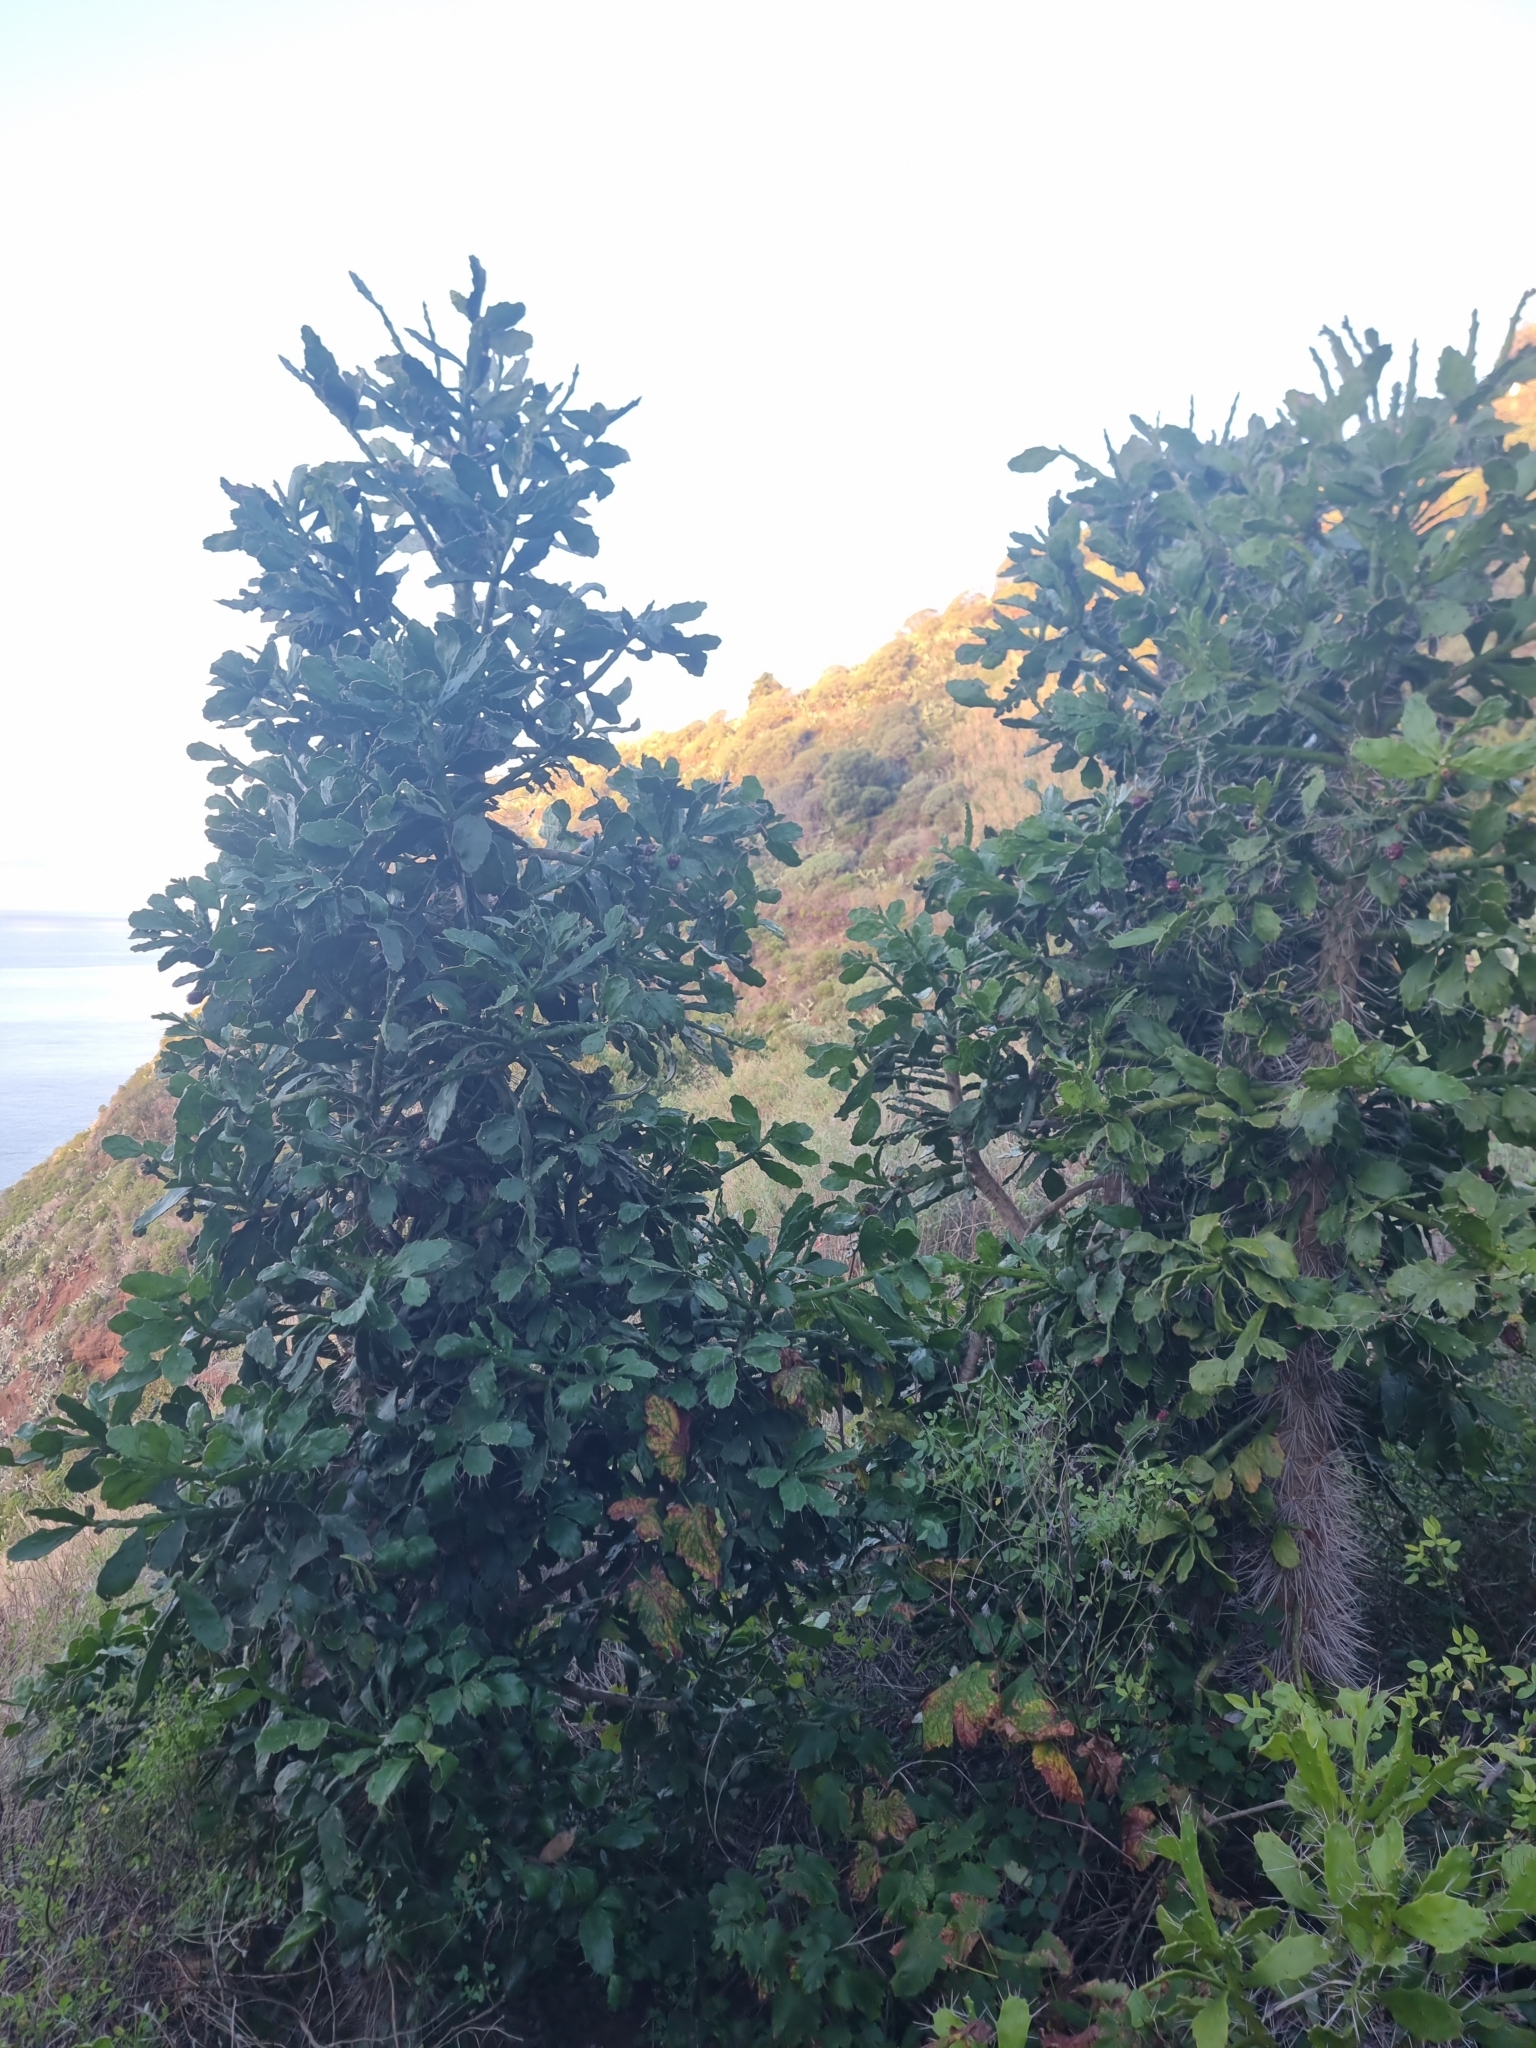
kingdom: Plantae
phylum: Tracheophyta
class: Magnoliopsida
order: Caryophyllales
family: Cactaceae
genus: Brasiliopuntia
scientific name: Brasiliopuntia brasiliensis
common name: Brazilian pricklypear
